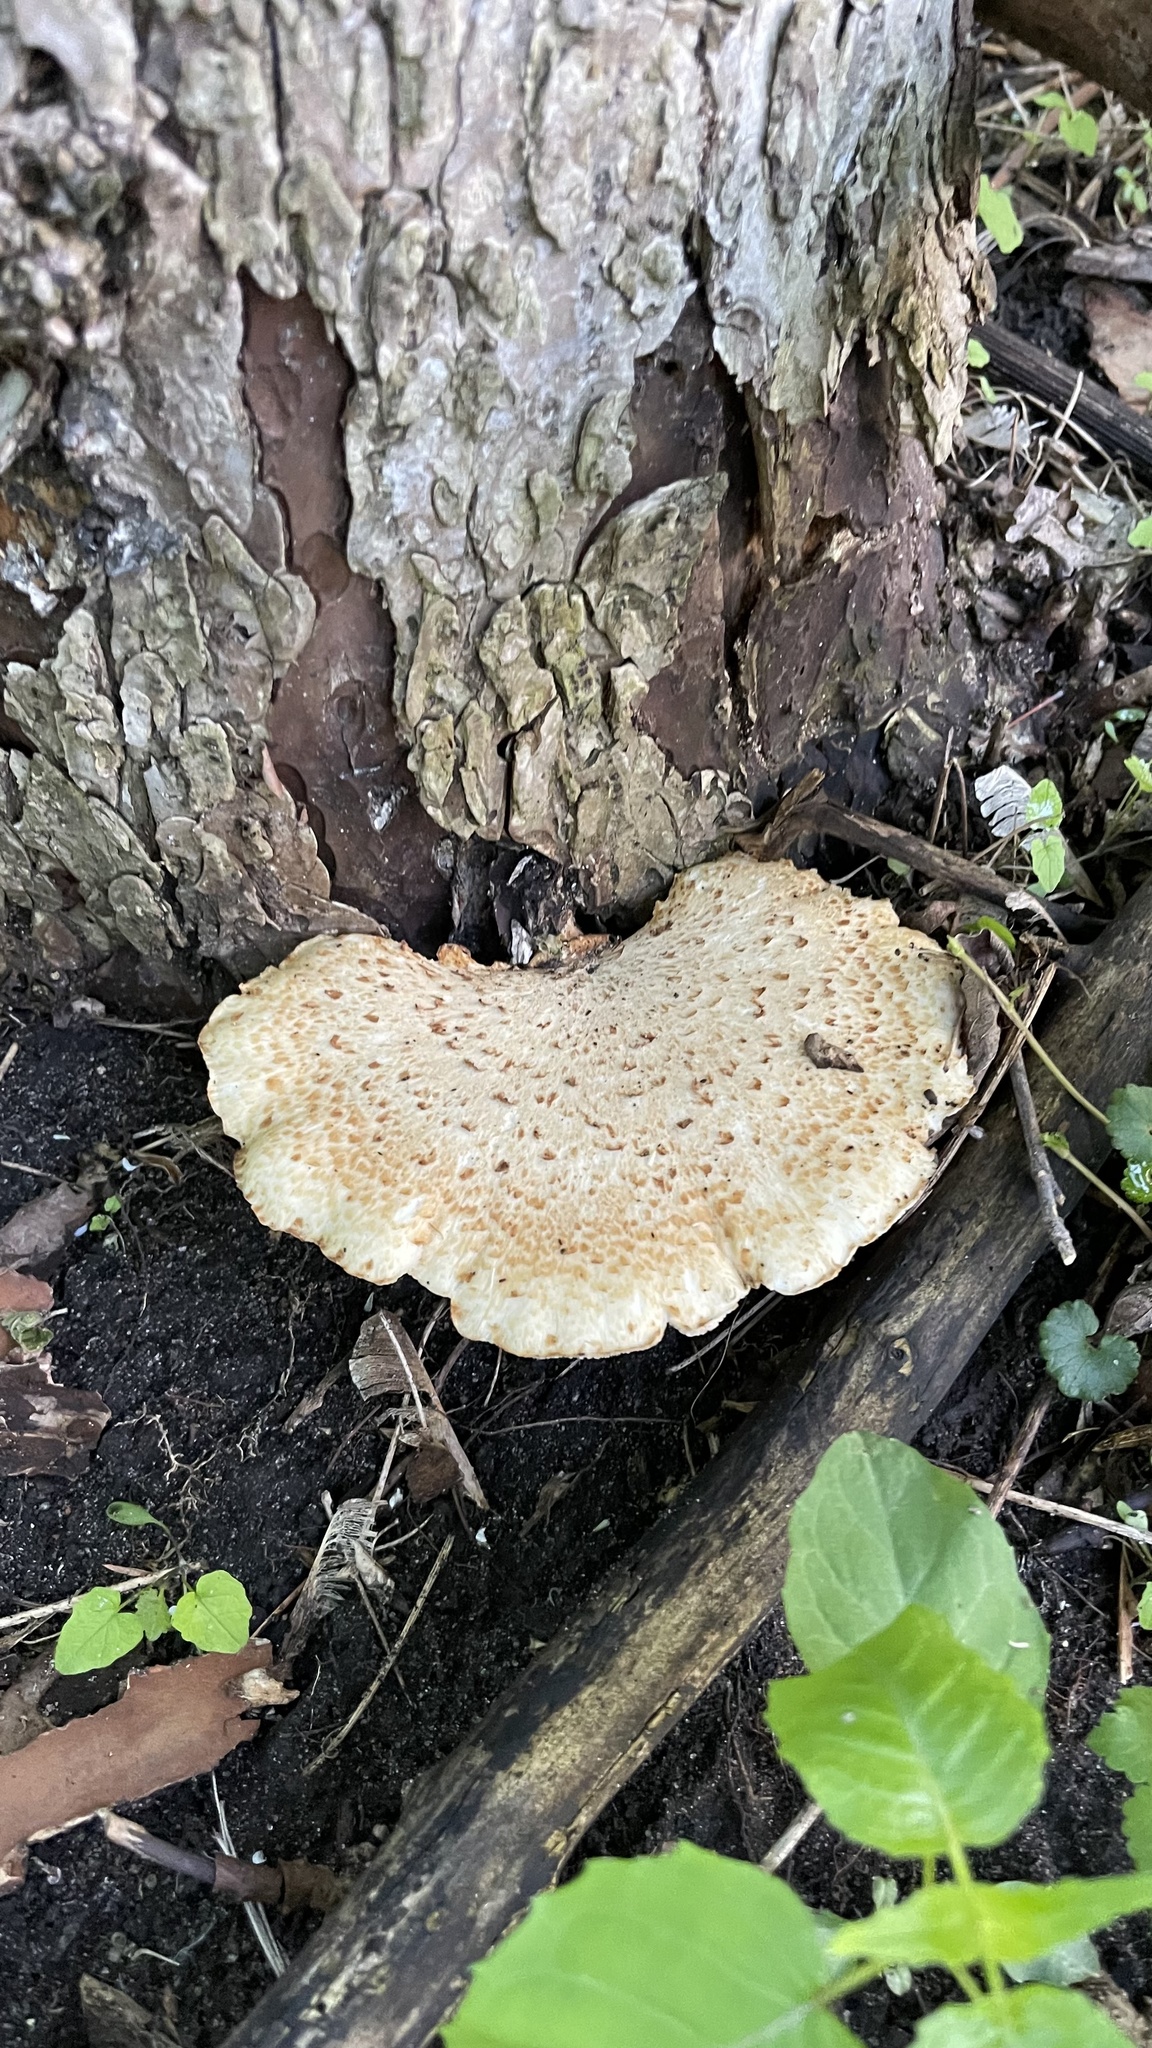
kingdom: Fungi
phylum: Basidiomycota
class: Agaricomycetes
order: Polyporales
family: Polyporaceae
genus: Cerioporus
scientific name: Cerioporus squamosus
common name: Dryad's saddle
